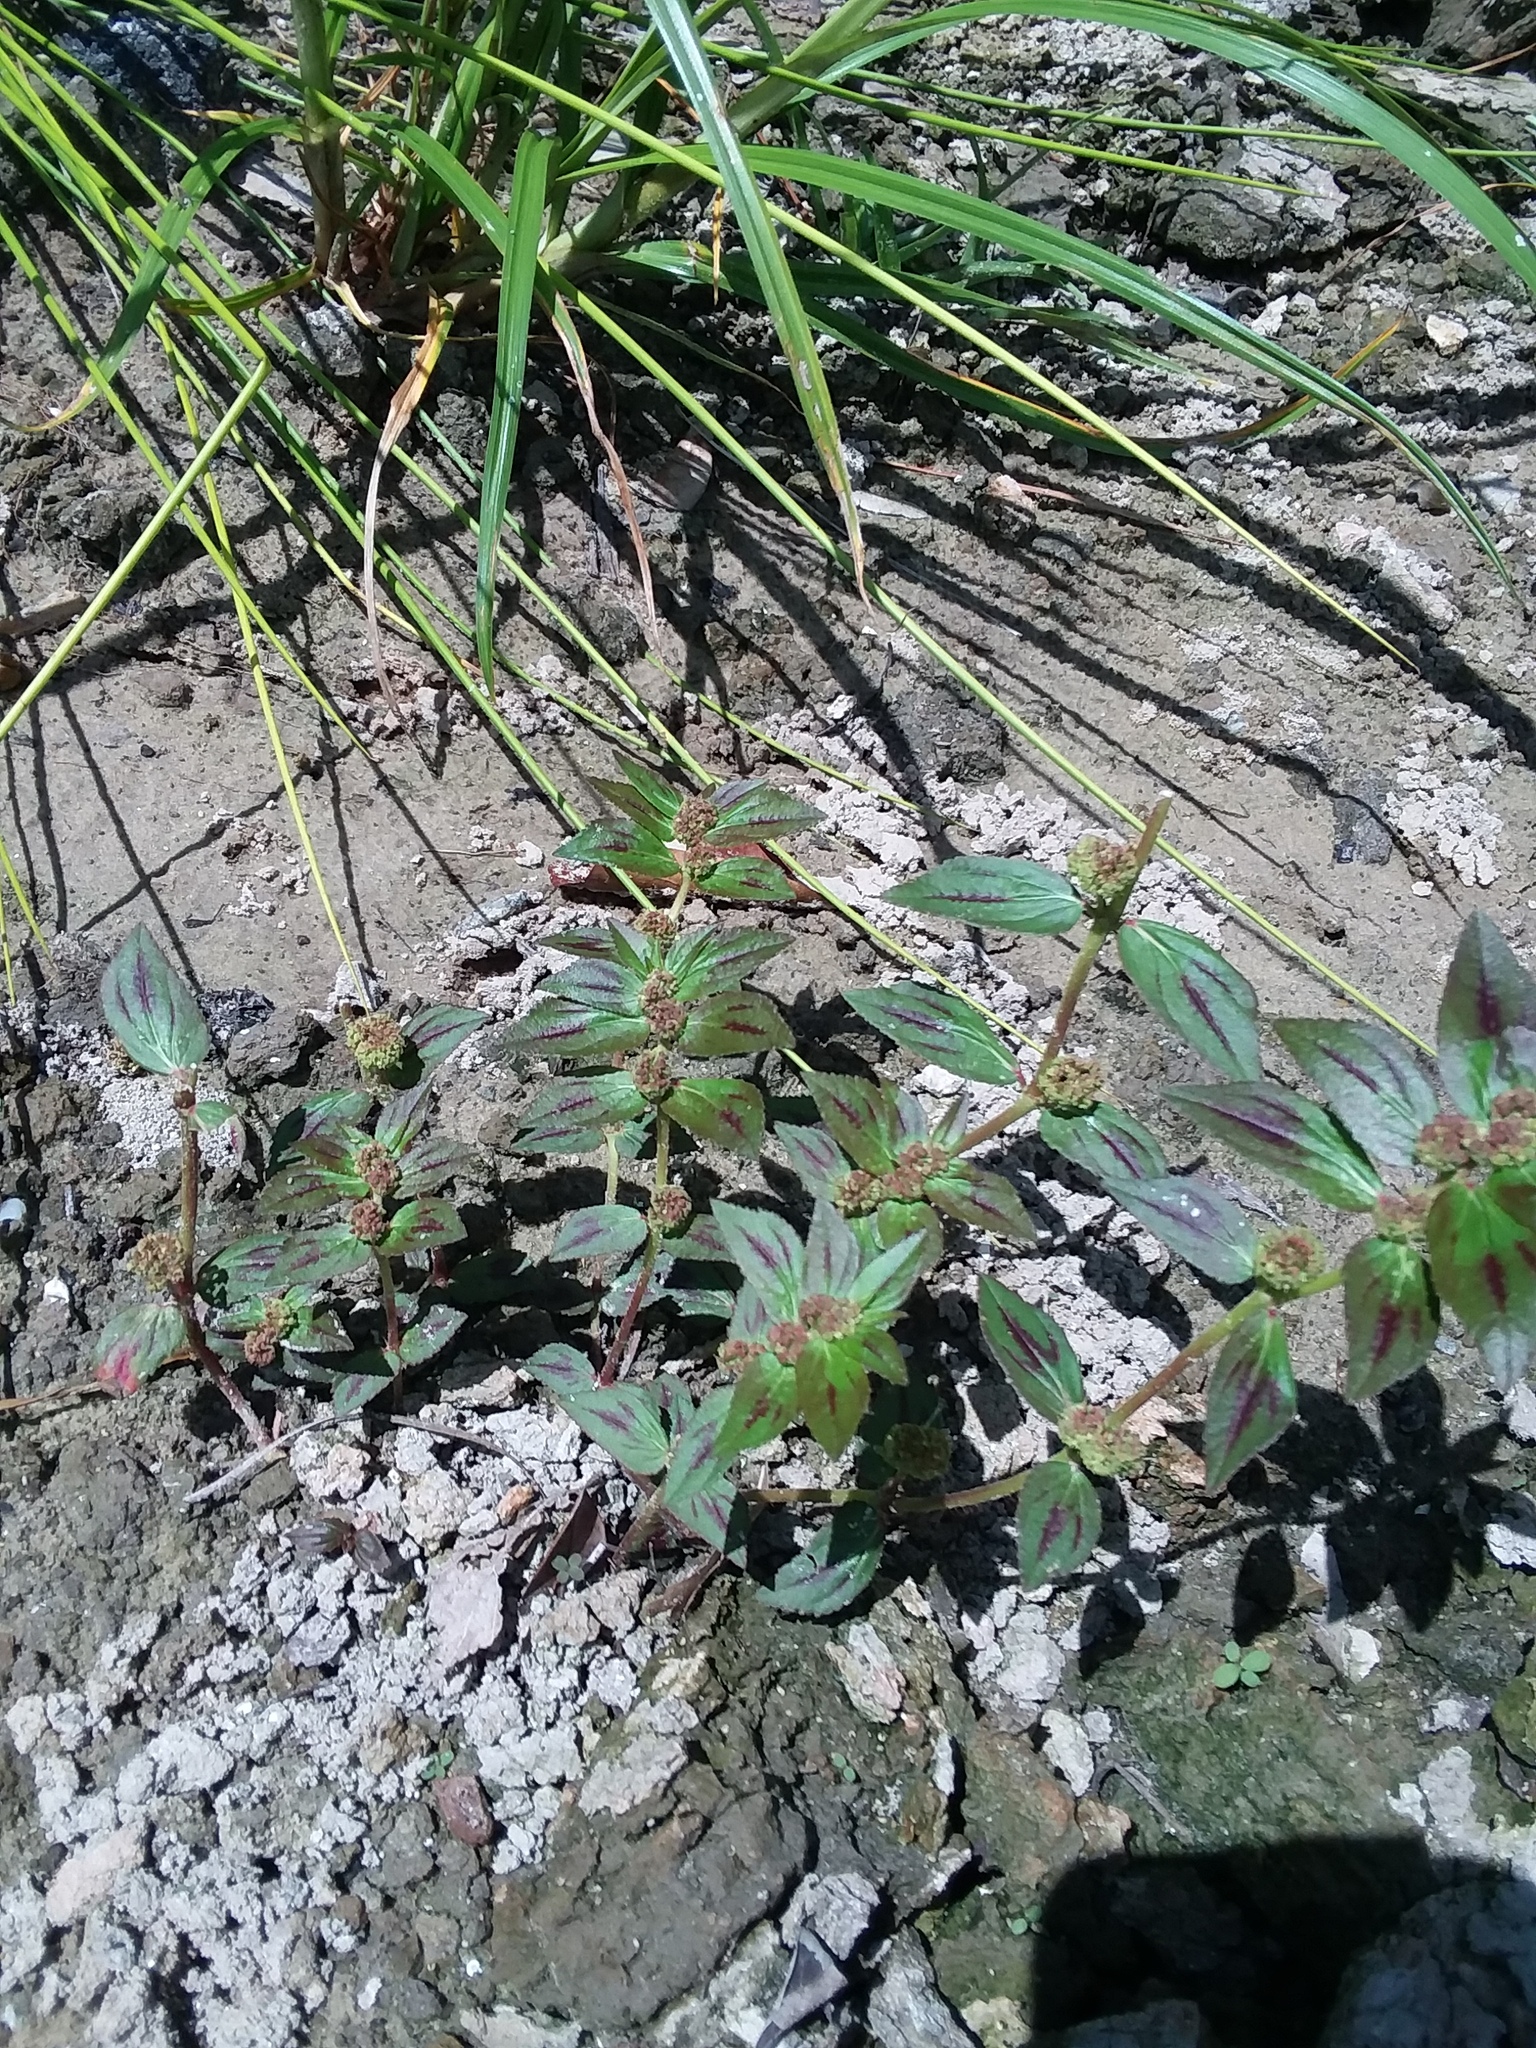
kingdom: Plantae
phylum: Tracheophyta
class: Magnoliopsida
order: Malpighiales
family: Euphorbiaceae
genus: Euphorbia
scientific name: Euphorbia hirta
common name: Pillpod sandmat
